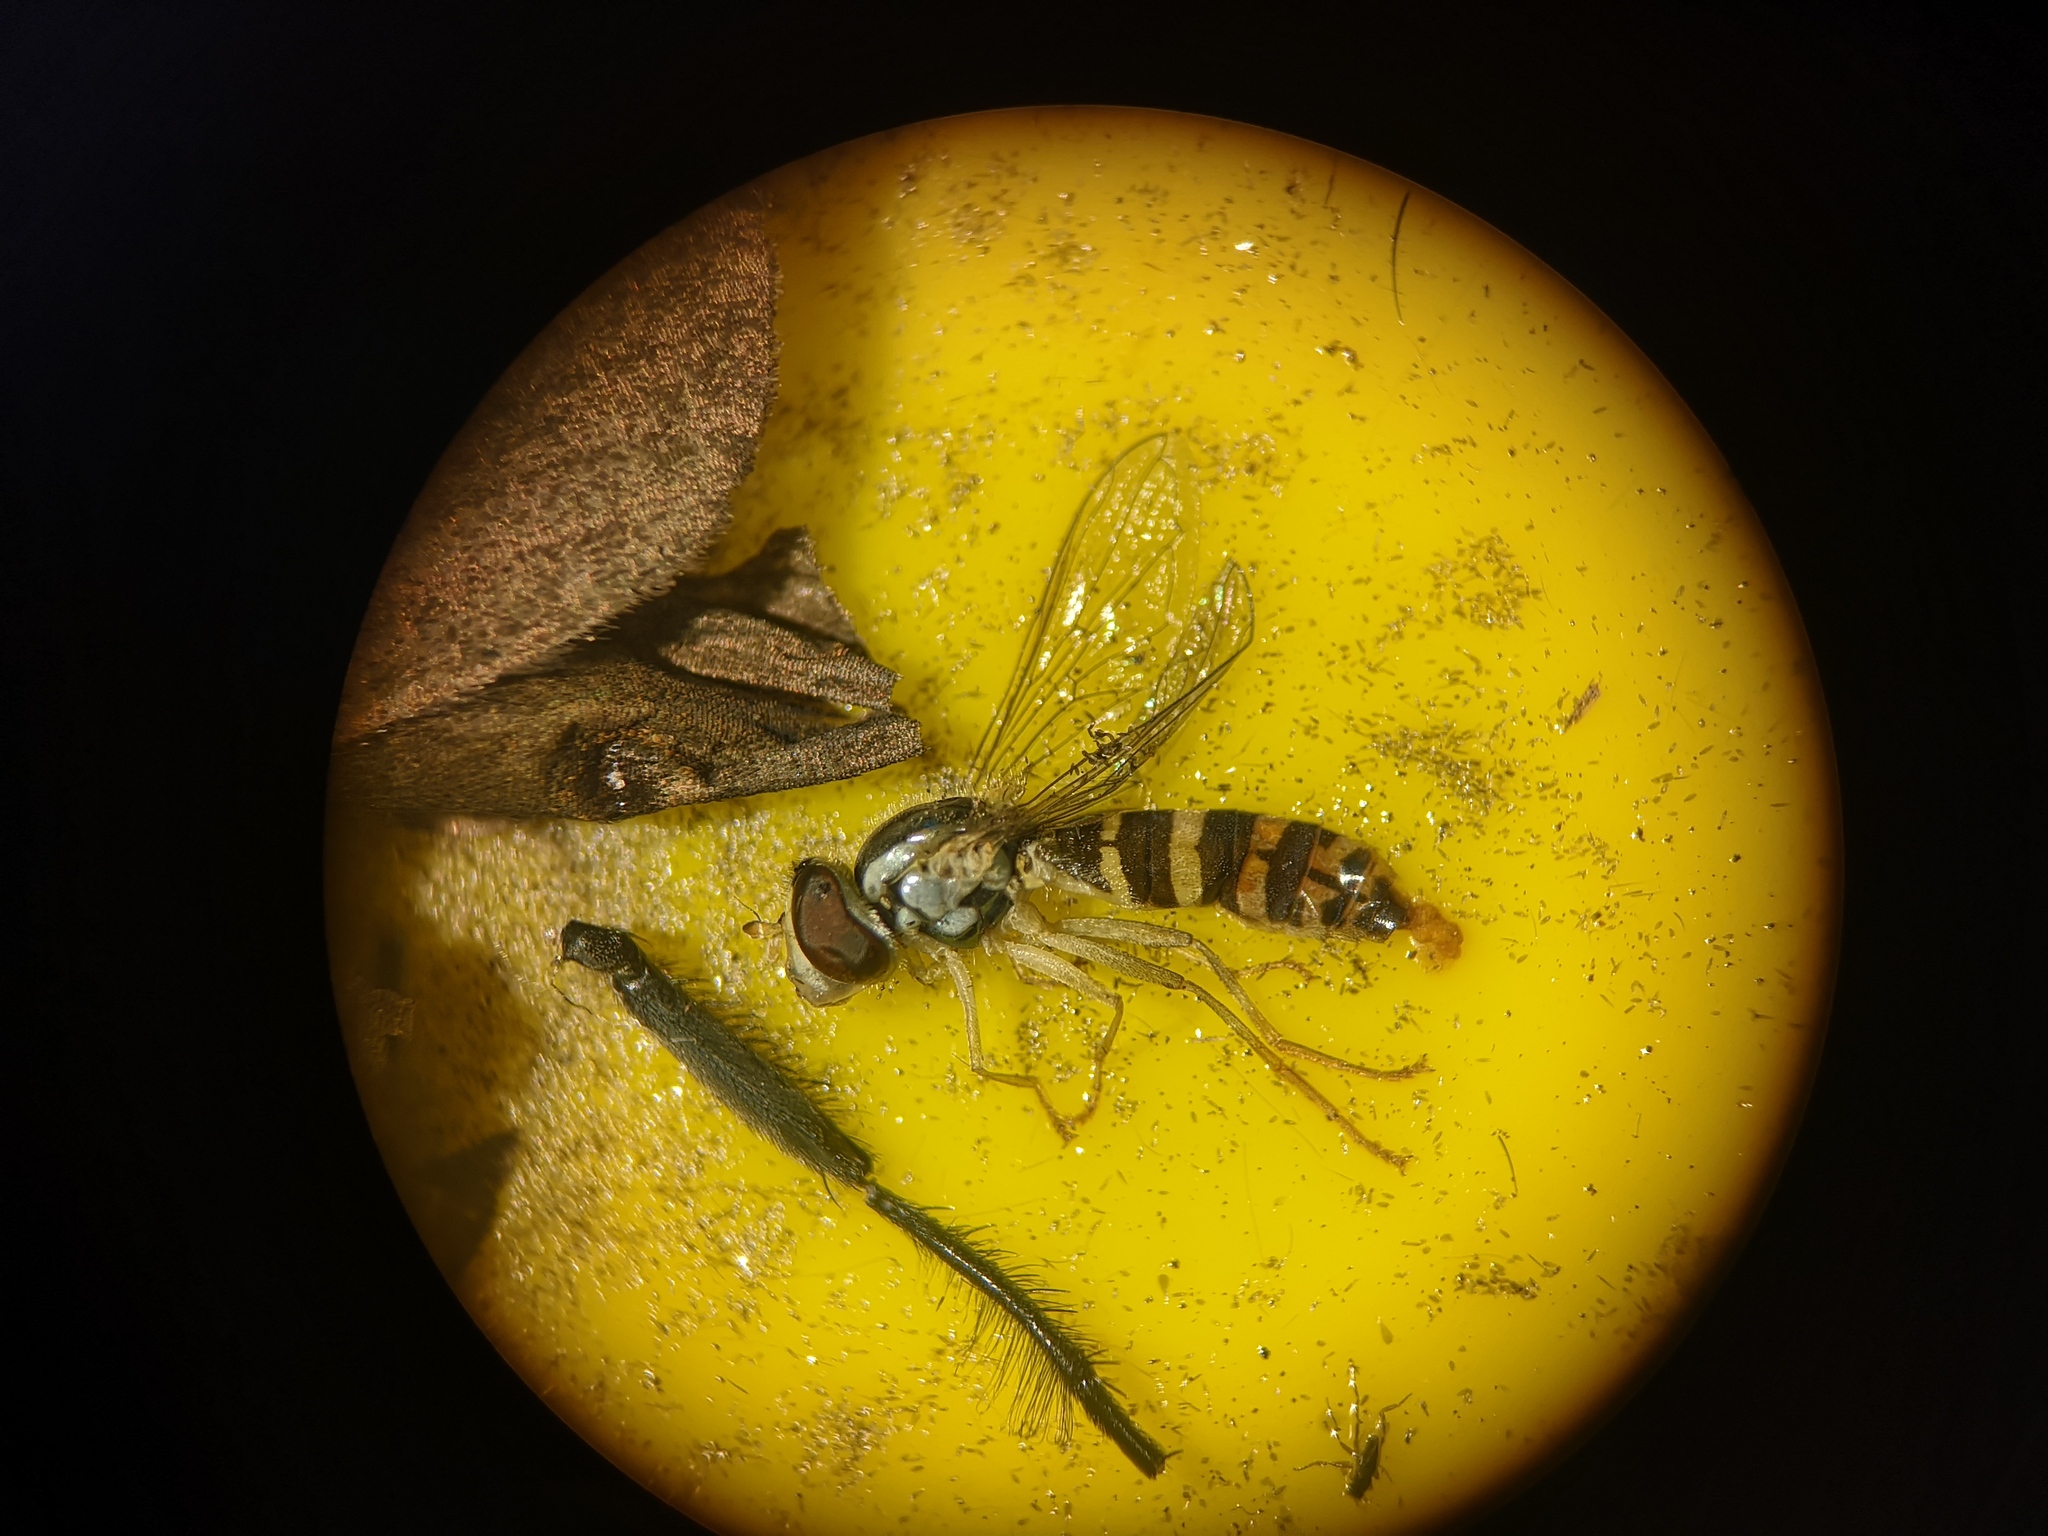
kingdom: Animalia
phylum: Arthropoda
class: Insecta
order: Diptera
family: Syrphidae
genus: Sphaerophoria
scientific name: Sphaerophoria
